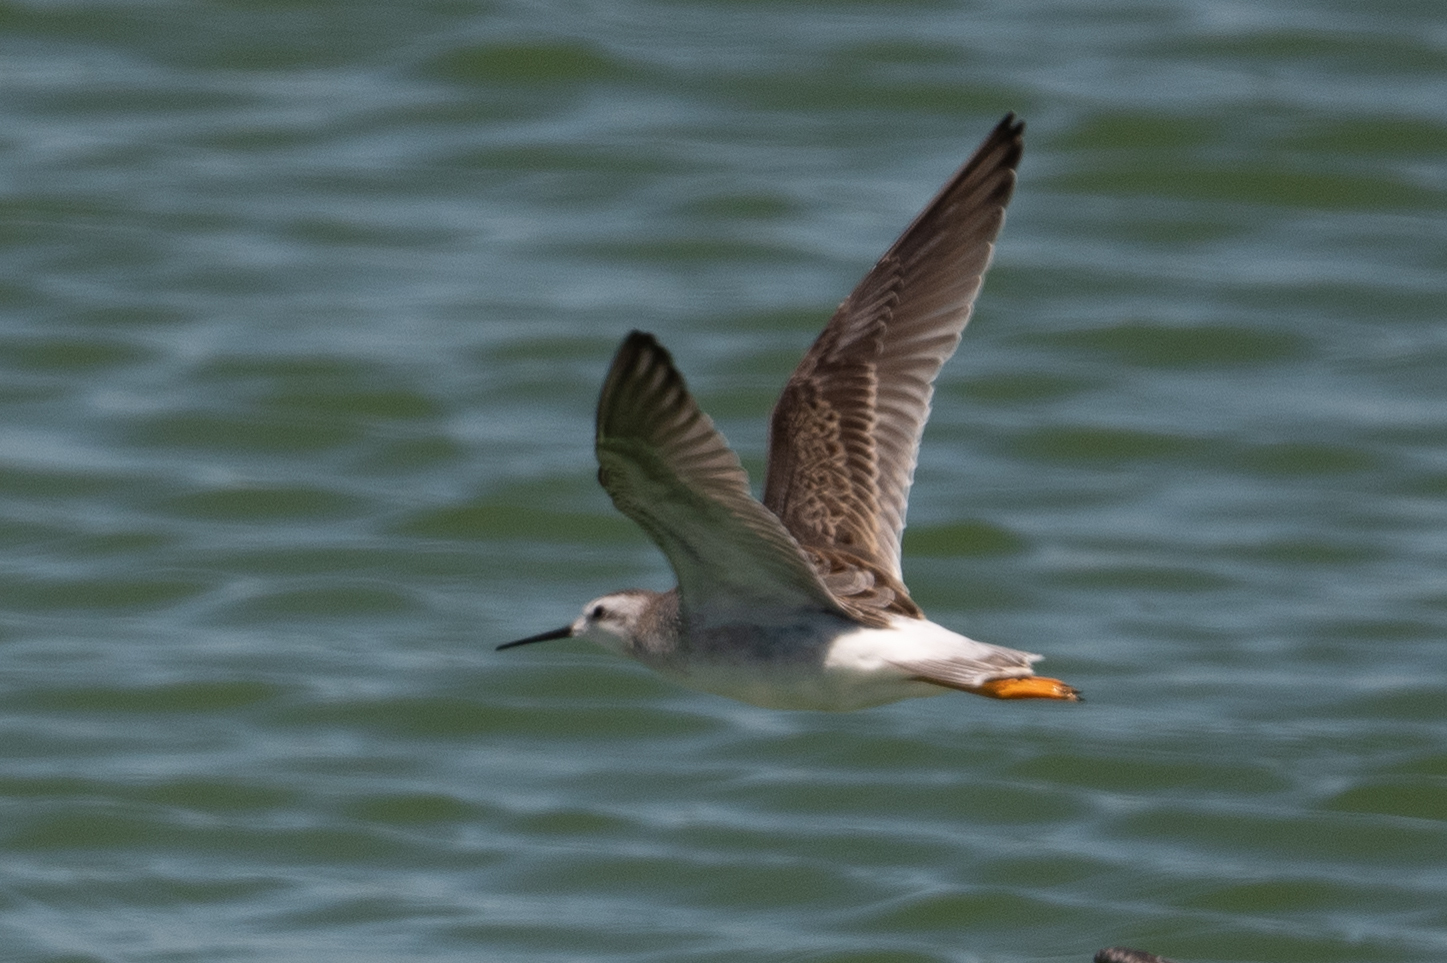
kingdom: Animalia
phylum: Chordata
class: Aves
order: Charadriiformes
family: Scolopacidae
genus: Phalaropus
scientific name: Phalaropus tricolor
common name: Wilson's phalarope
